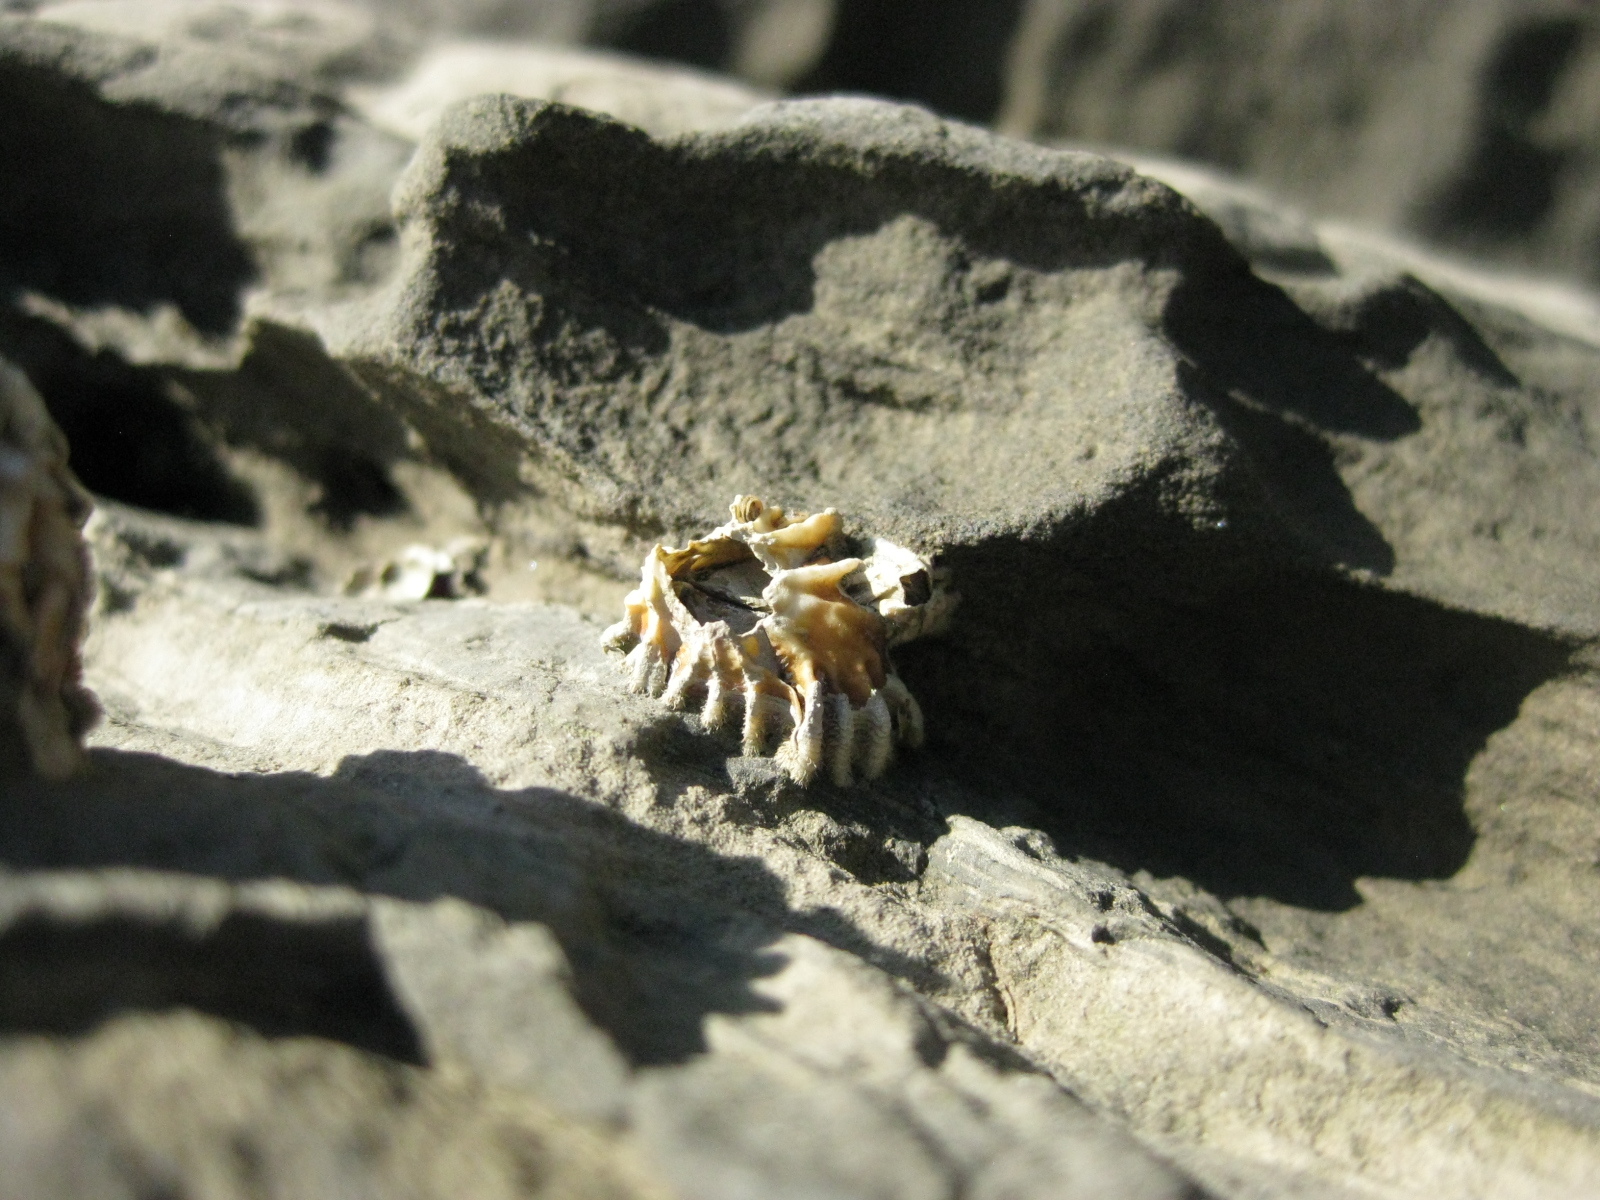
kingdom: Animalia
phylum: Arthropoda
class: Maxillopoda
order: Sessilia
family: Tetraclitidae
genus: Epopella
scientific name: Epopella plicata
